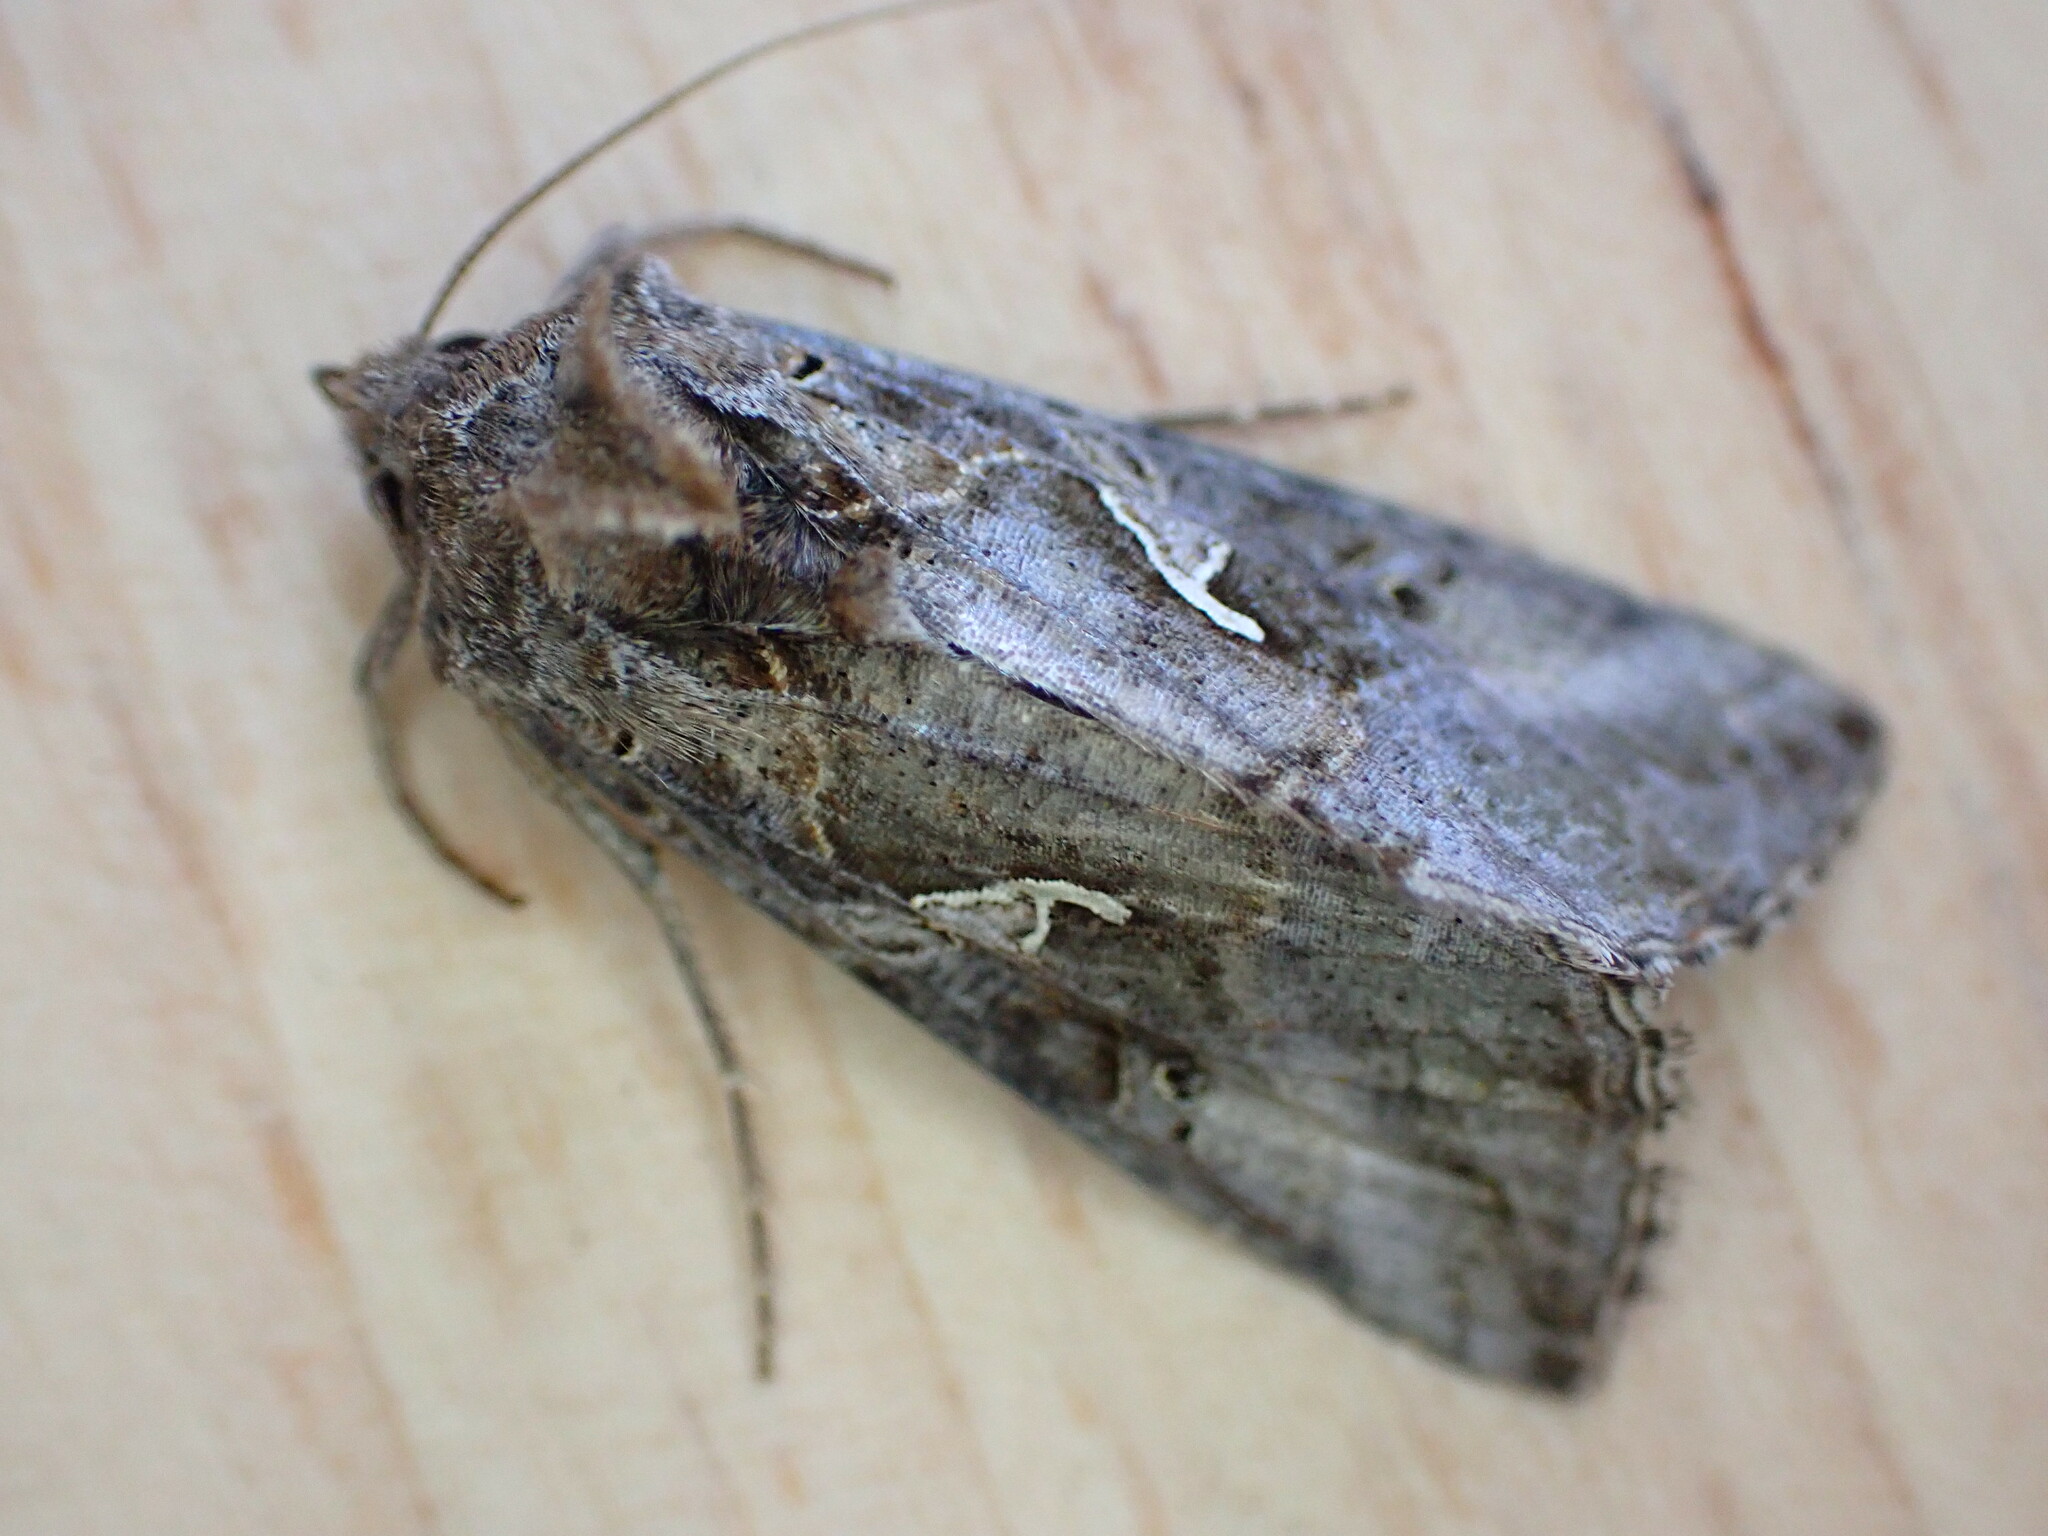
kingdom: Animalia
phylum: Arthropoda
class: Insecta
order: Lepidoptera
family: Noctuidae
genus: Autographa
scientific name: Autographa gamma
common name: Silver y
